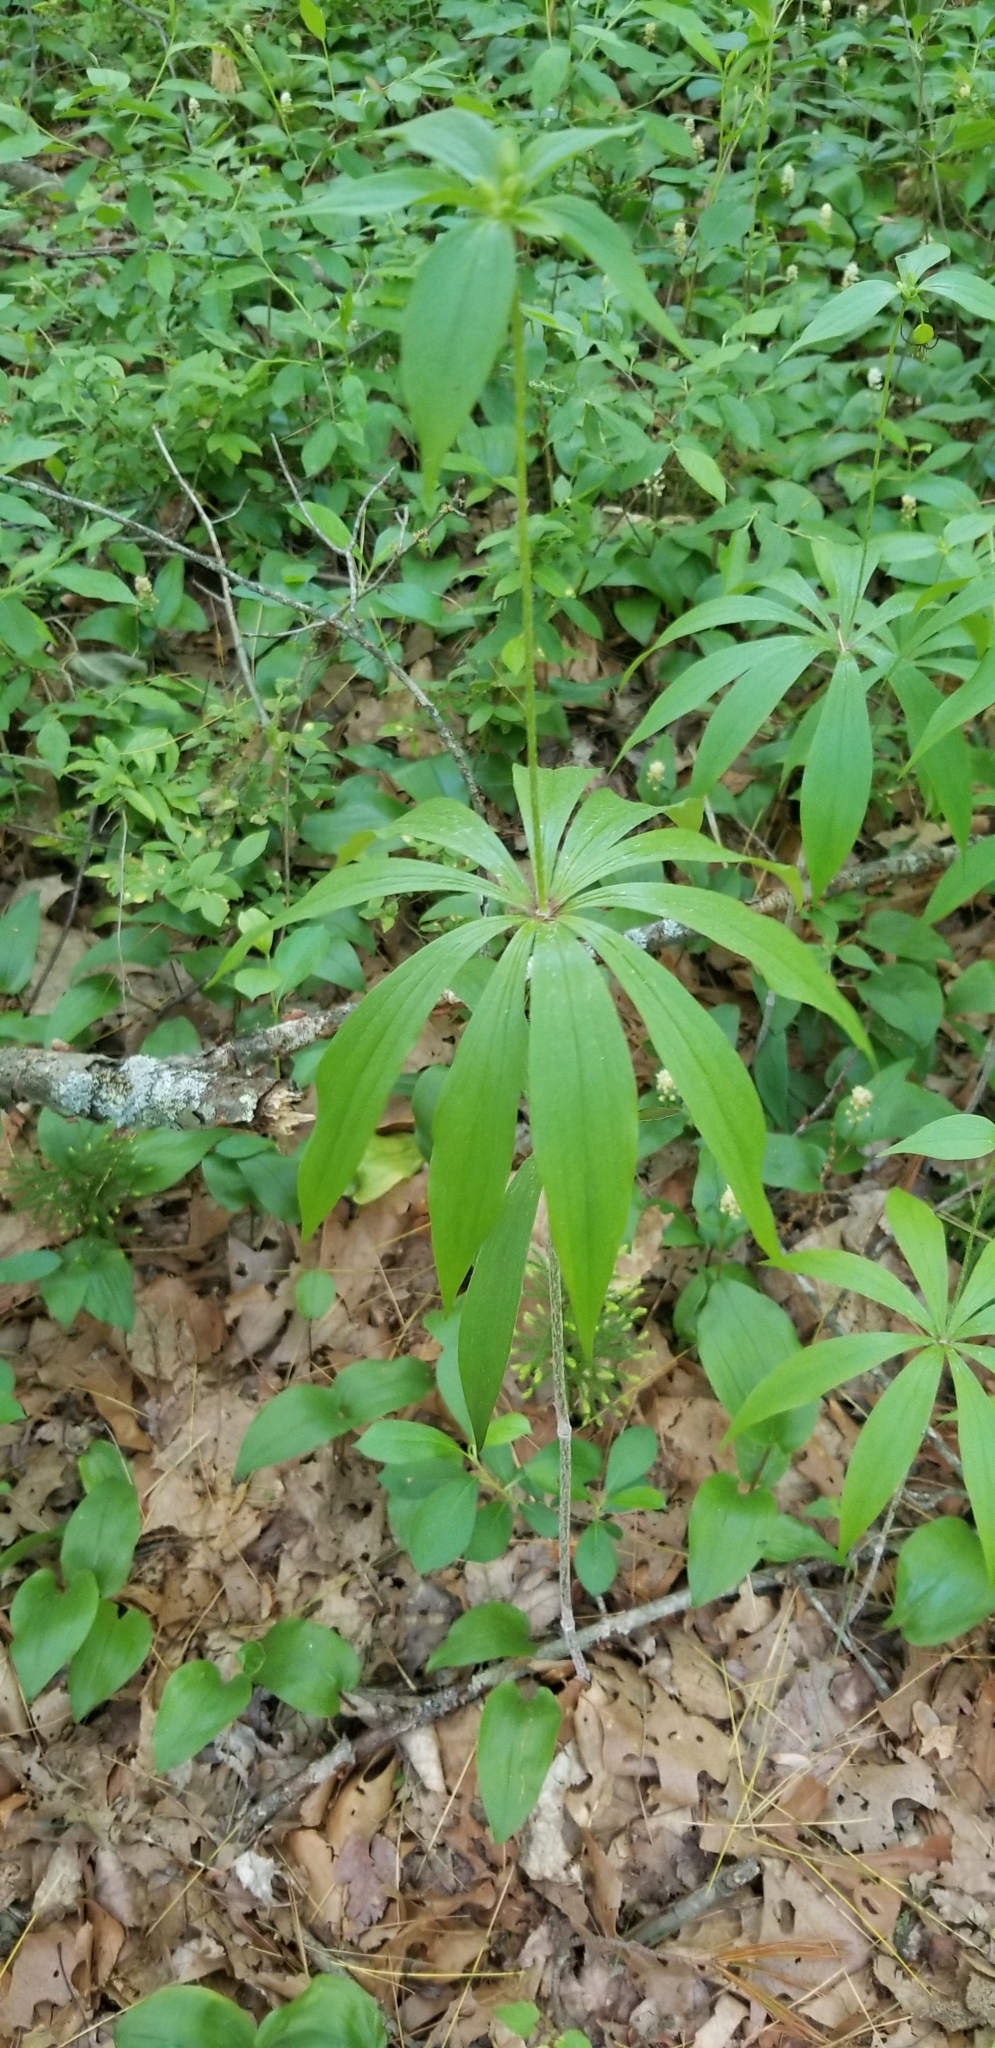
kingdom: Plantae
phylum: Tracheophyta
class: Liliopsida
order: Liliales
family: Liliaceae
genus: Medeola
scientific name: Medeola virginiana
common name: Indian cucumber-root
